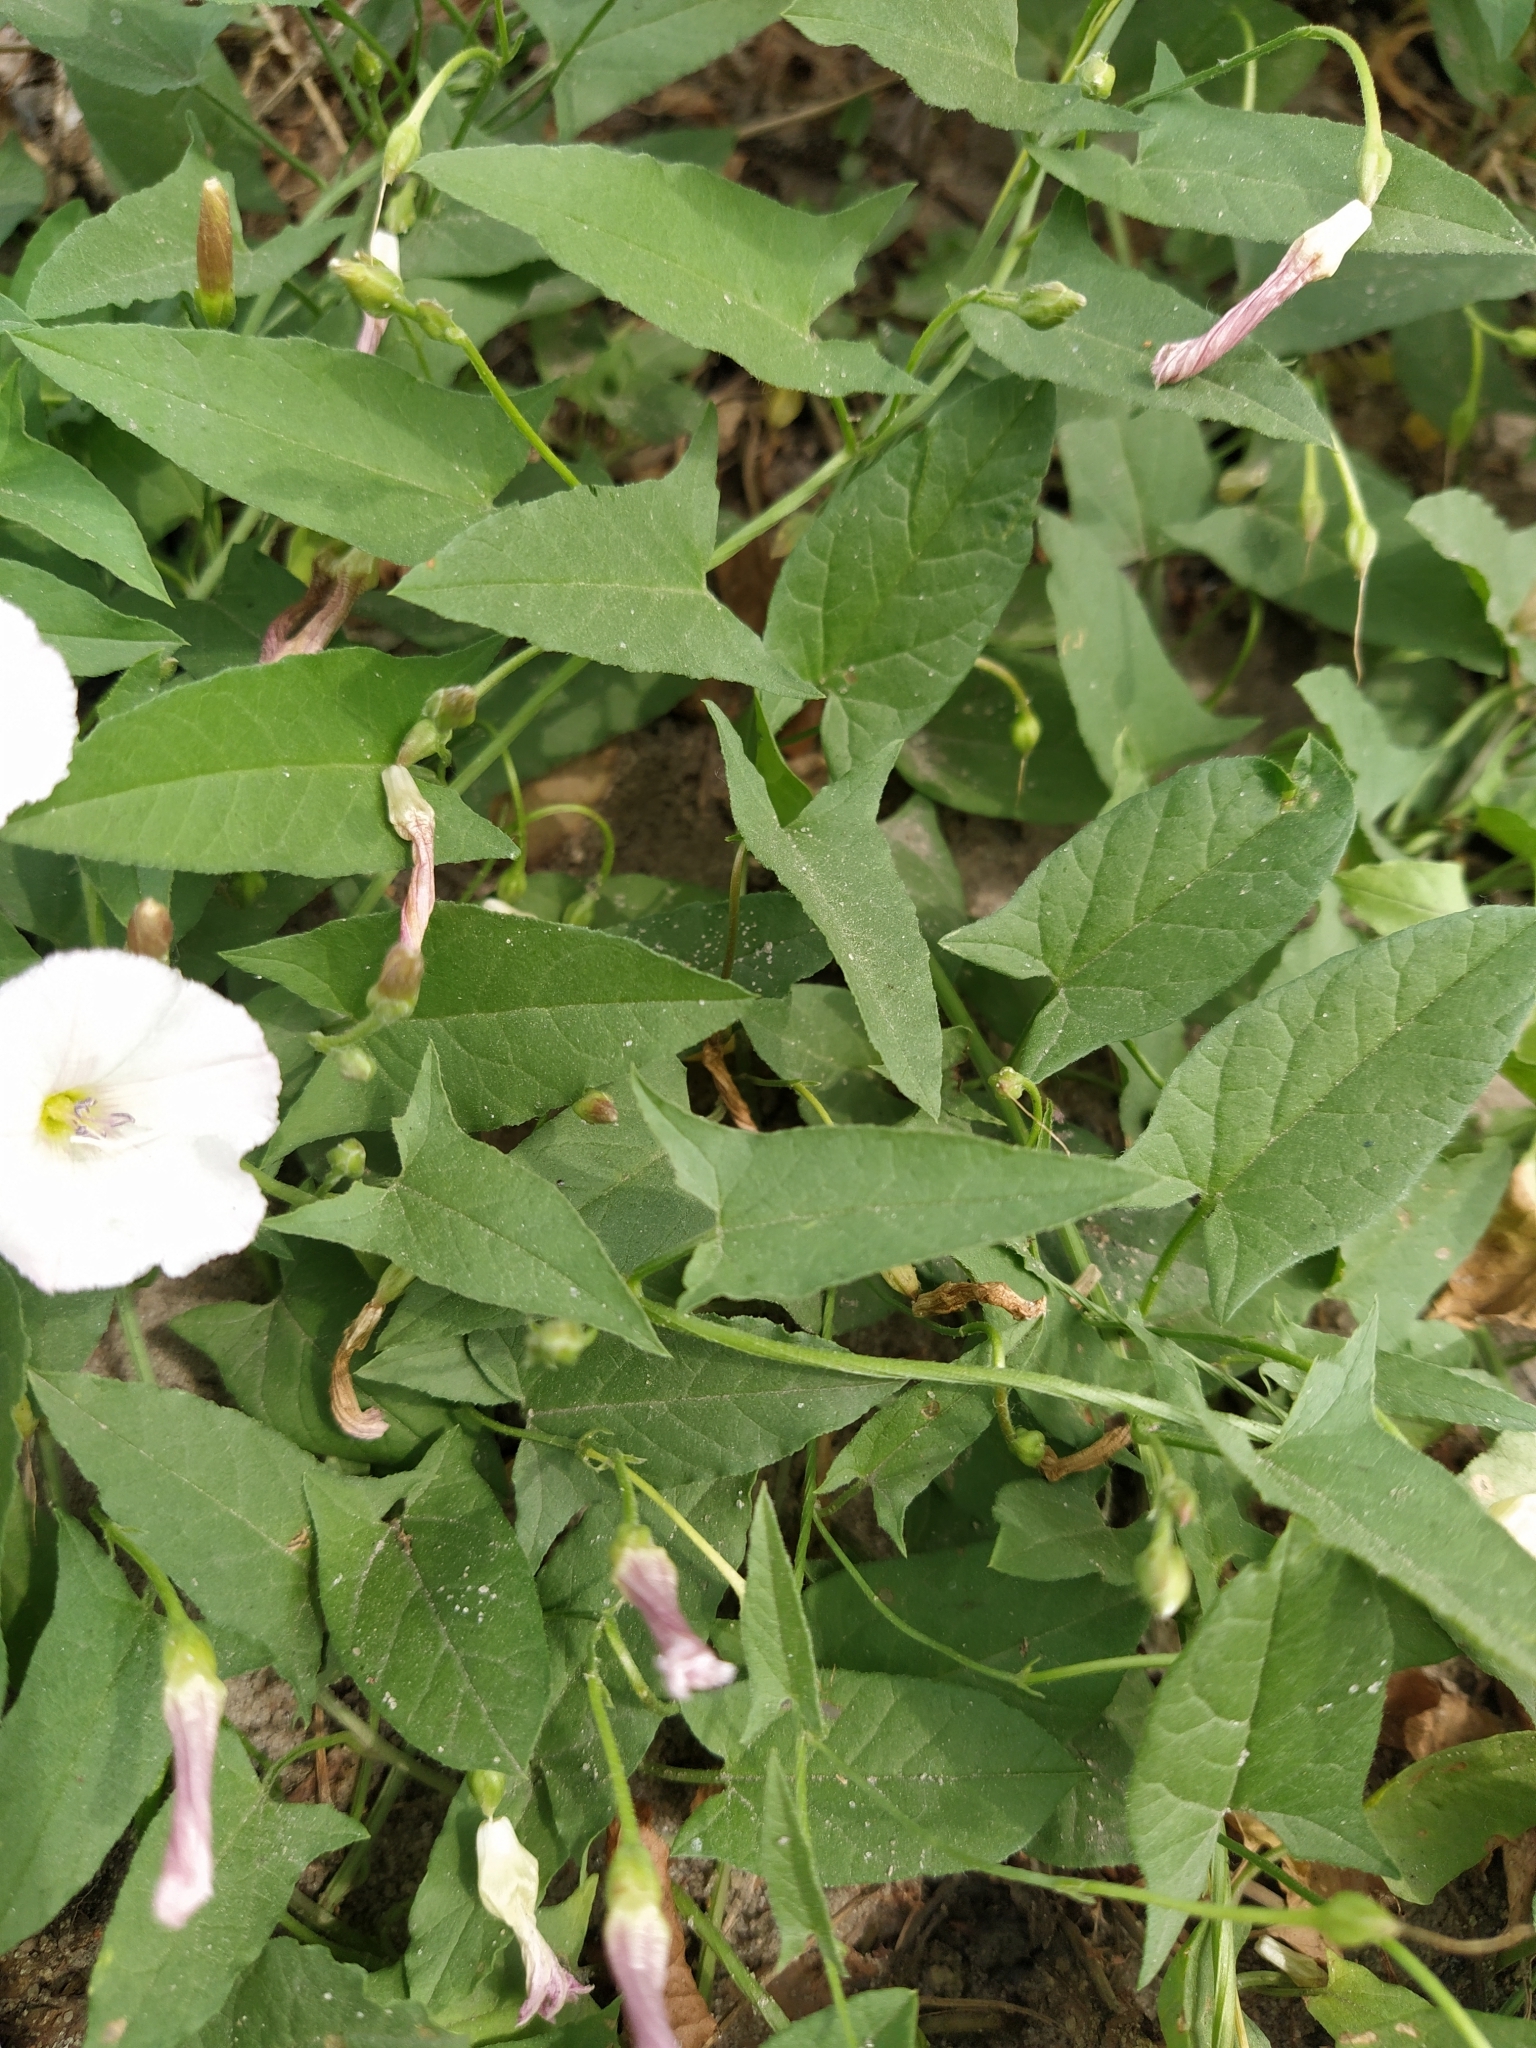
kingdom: Plantae
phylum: Tracheophyta
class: Magnoliopsida
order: Solanales
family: Convolvulaceae
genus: Convolvulus
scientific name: Convolvulus arvensis
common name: Field bindweed
